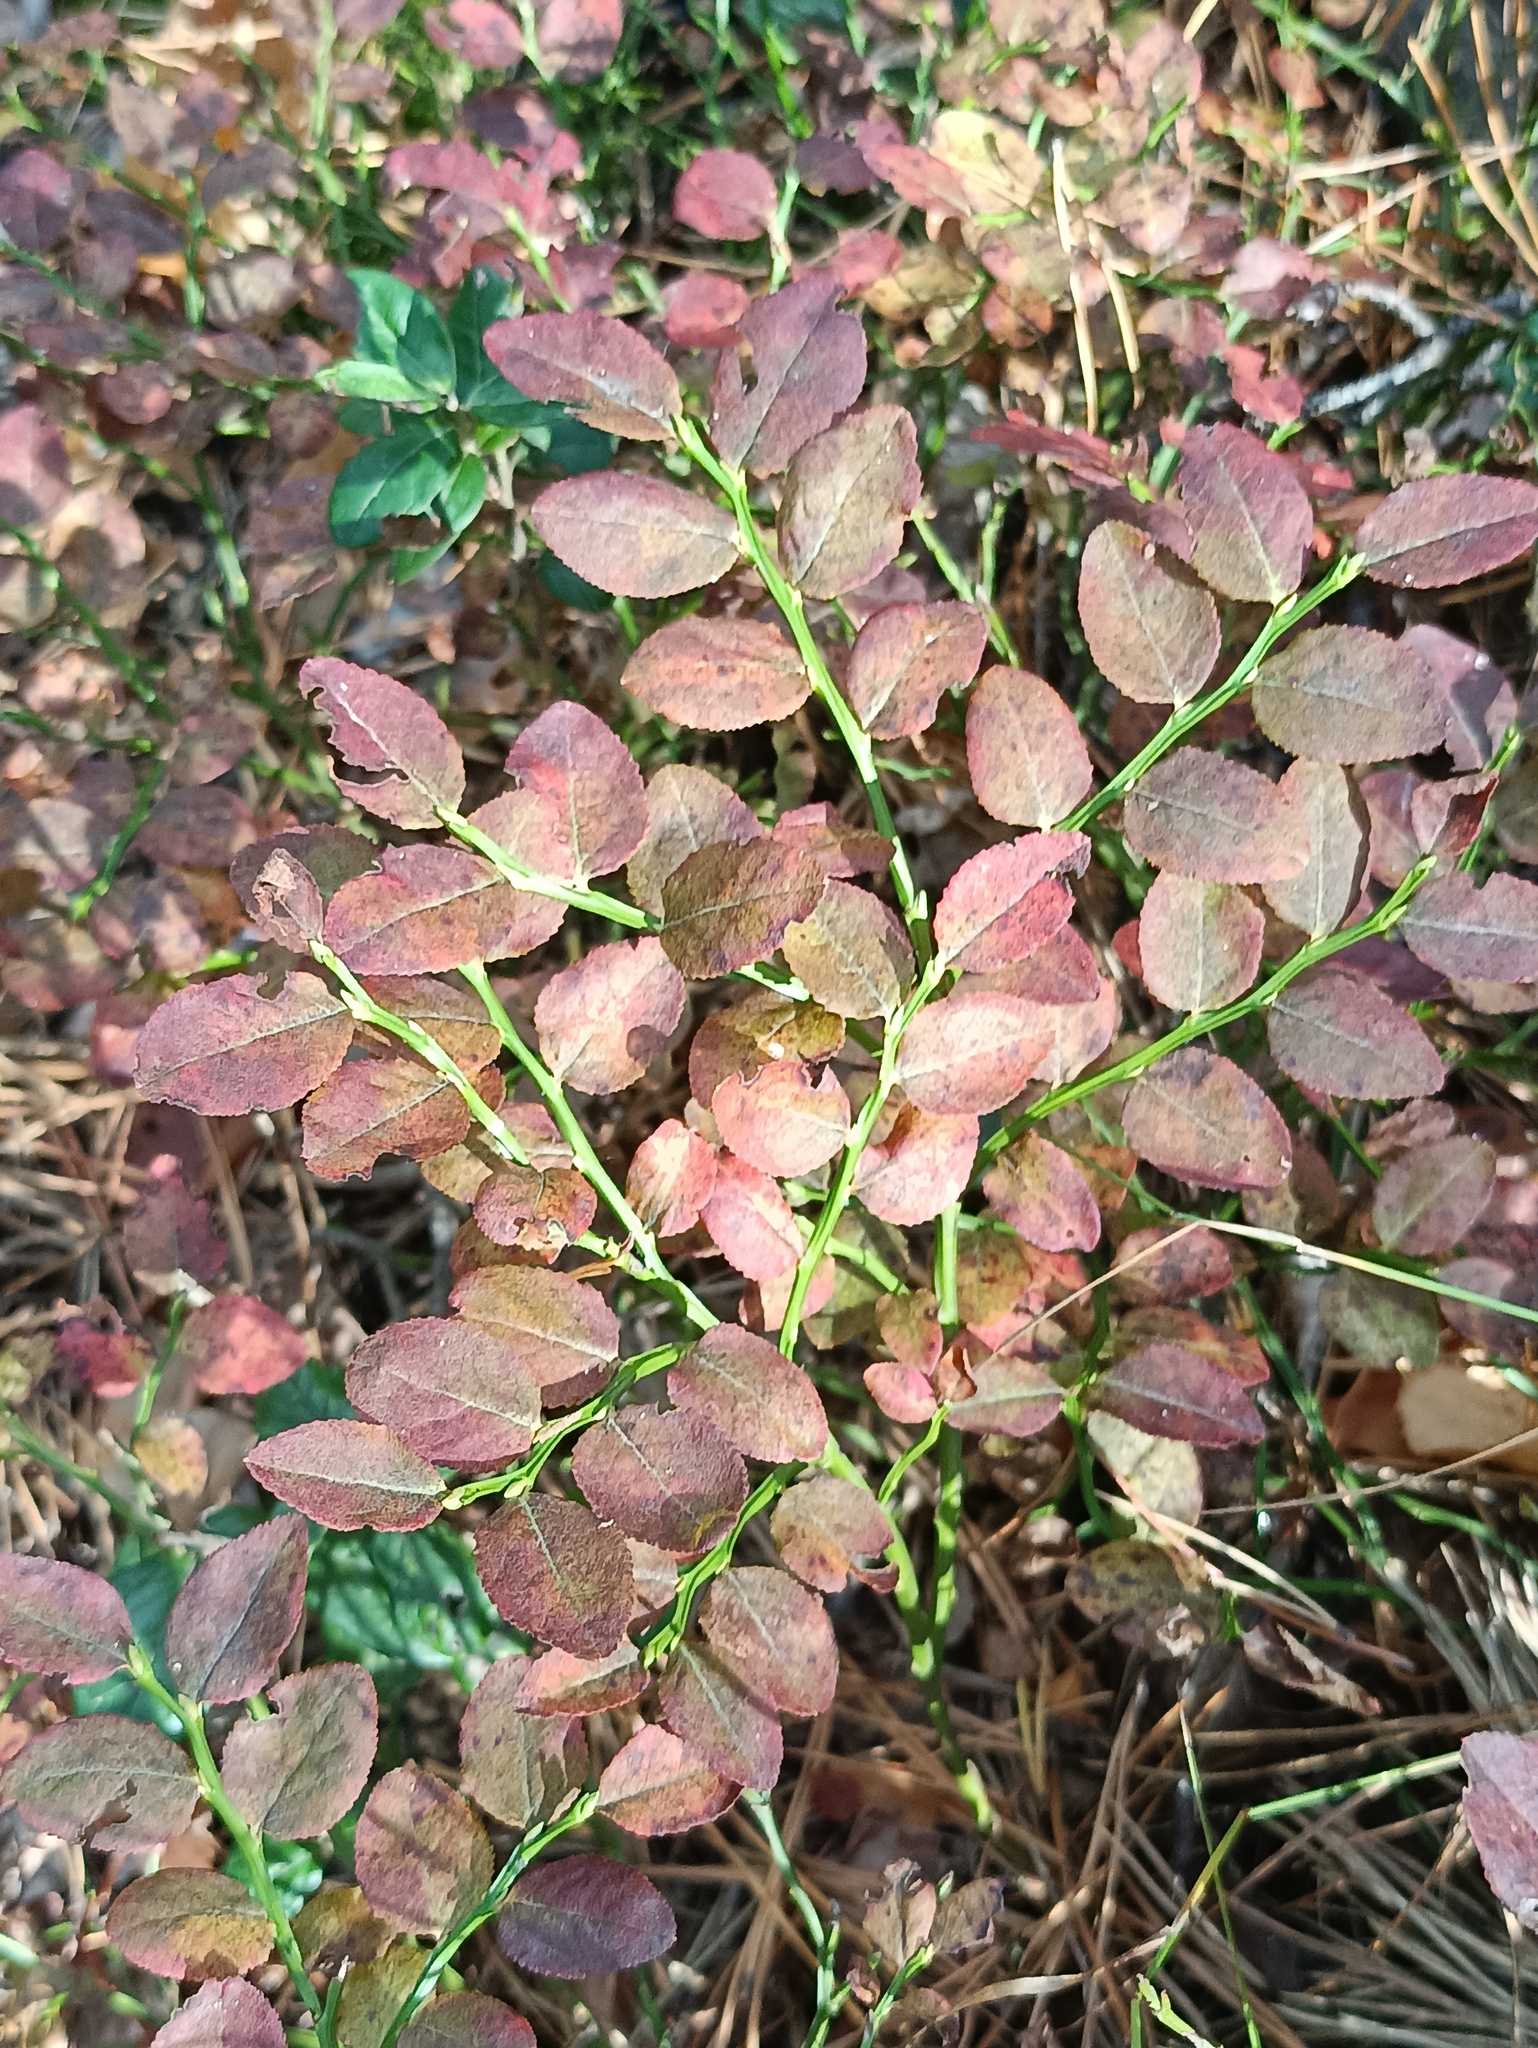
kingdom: Plantae
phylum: Tracheophyta
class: Magnoliopsida
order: Ericales
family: Ericaceae
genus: Vaccinium
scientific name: Vaccinium myrtillus
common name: Bilberry
